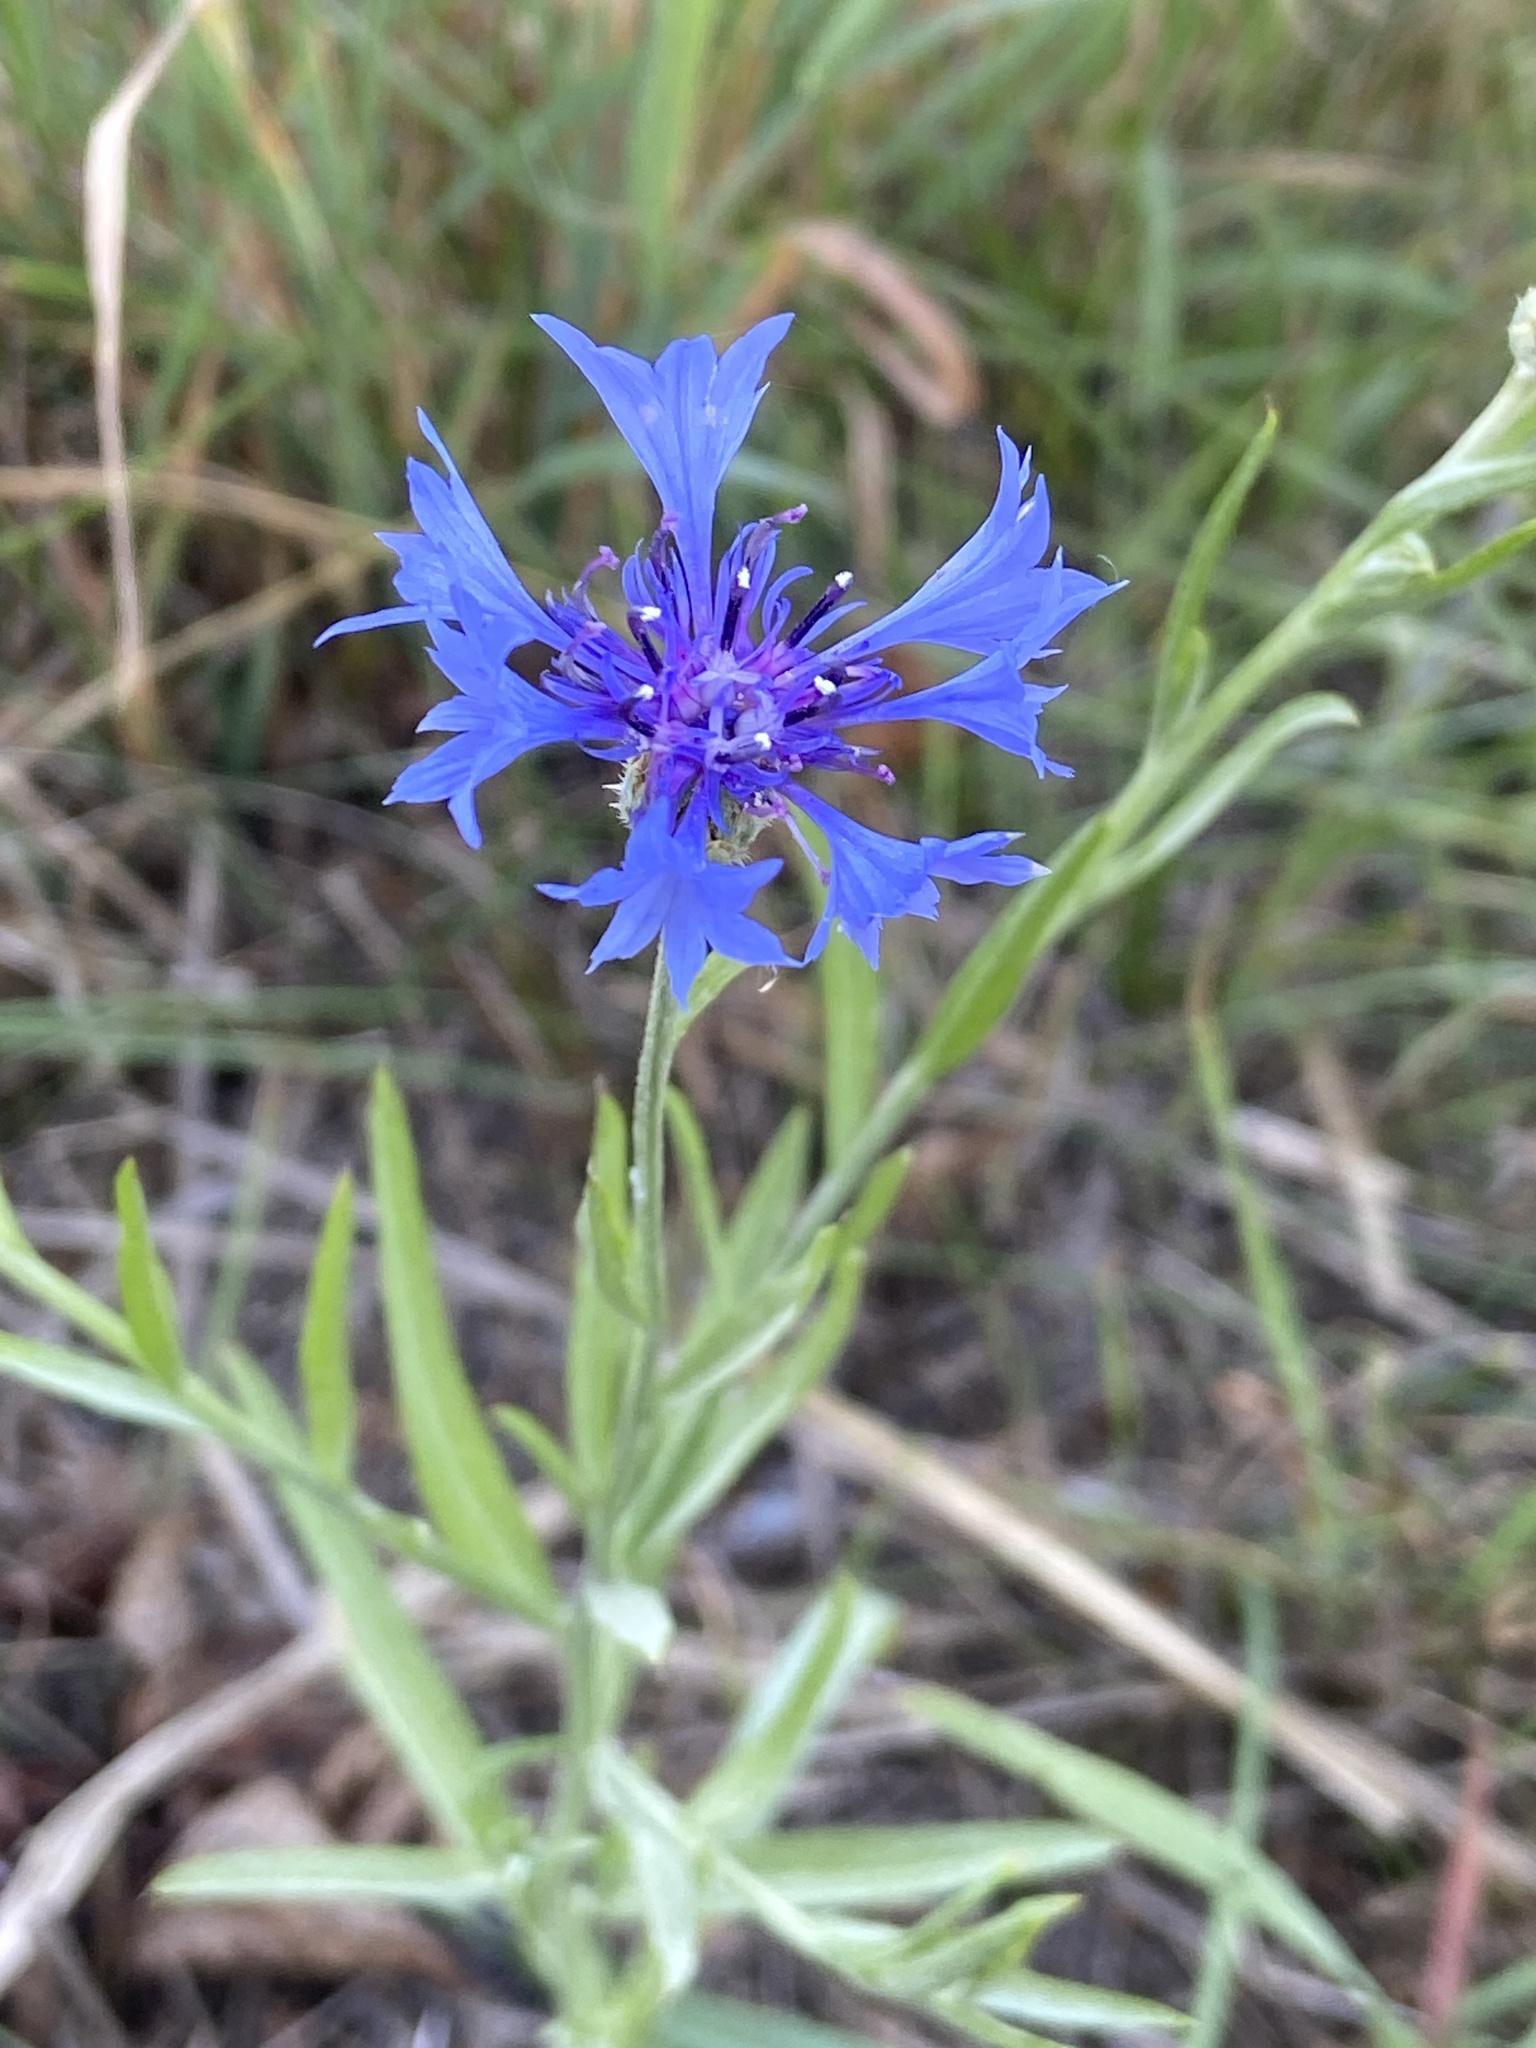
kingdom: Plantae
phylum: Tracheophyta
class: Magnoliopsida
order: Asterales
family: Asteraceae
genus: Centaurea
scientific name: Centaurea cyanus
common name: Cornflower
